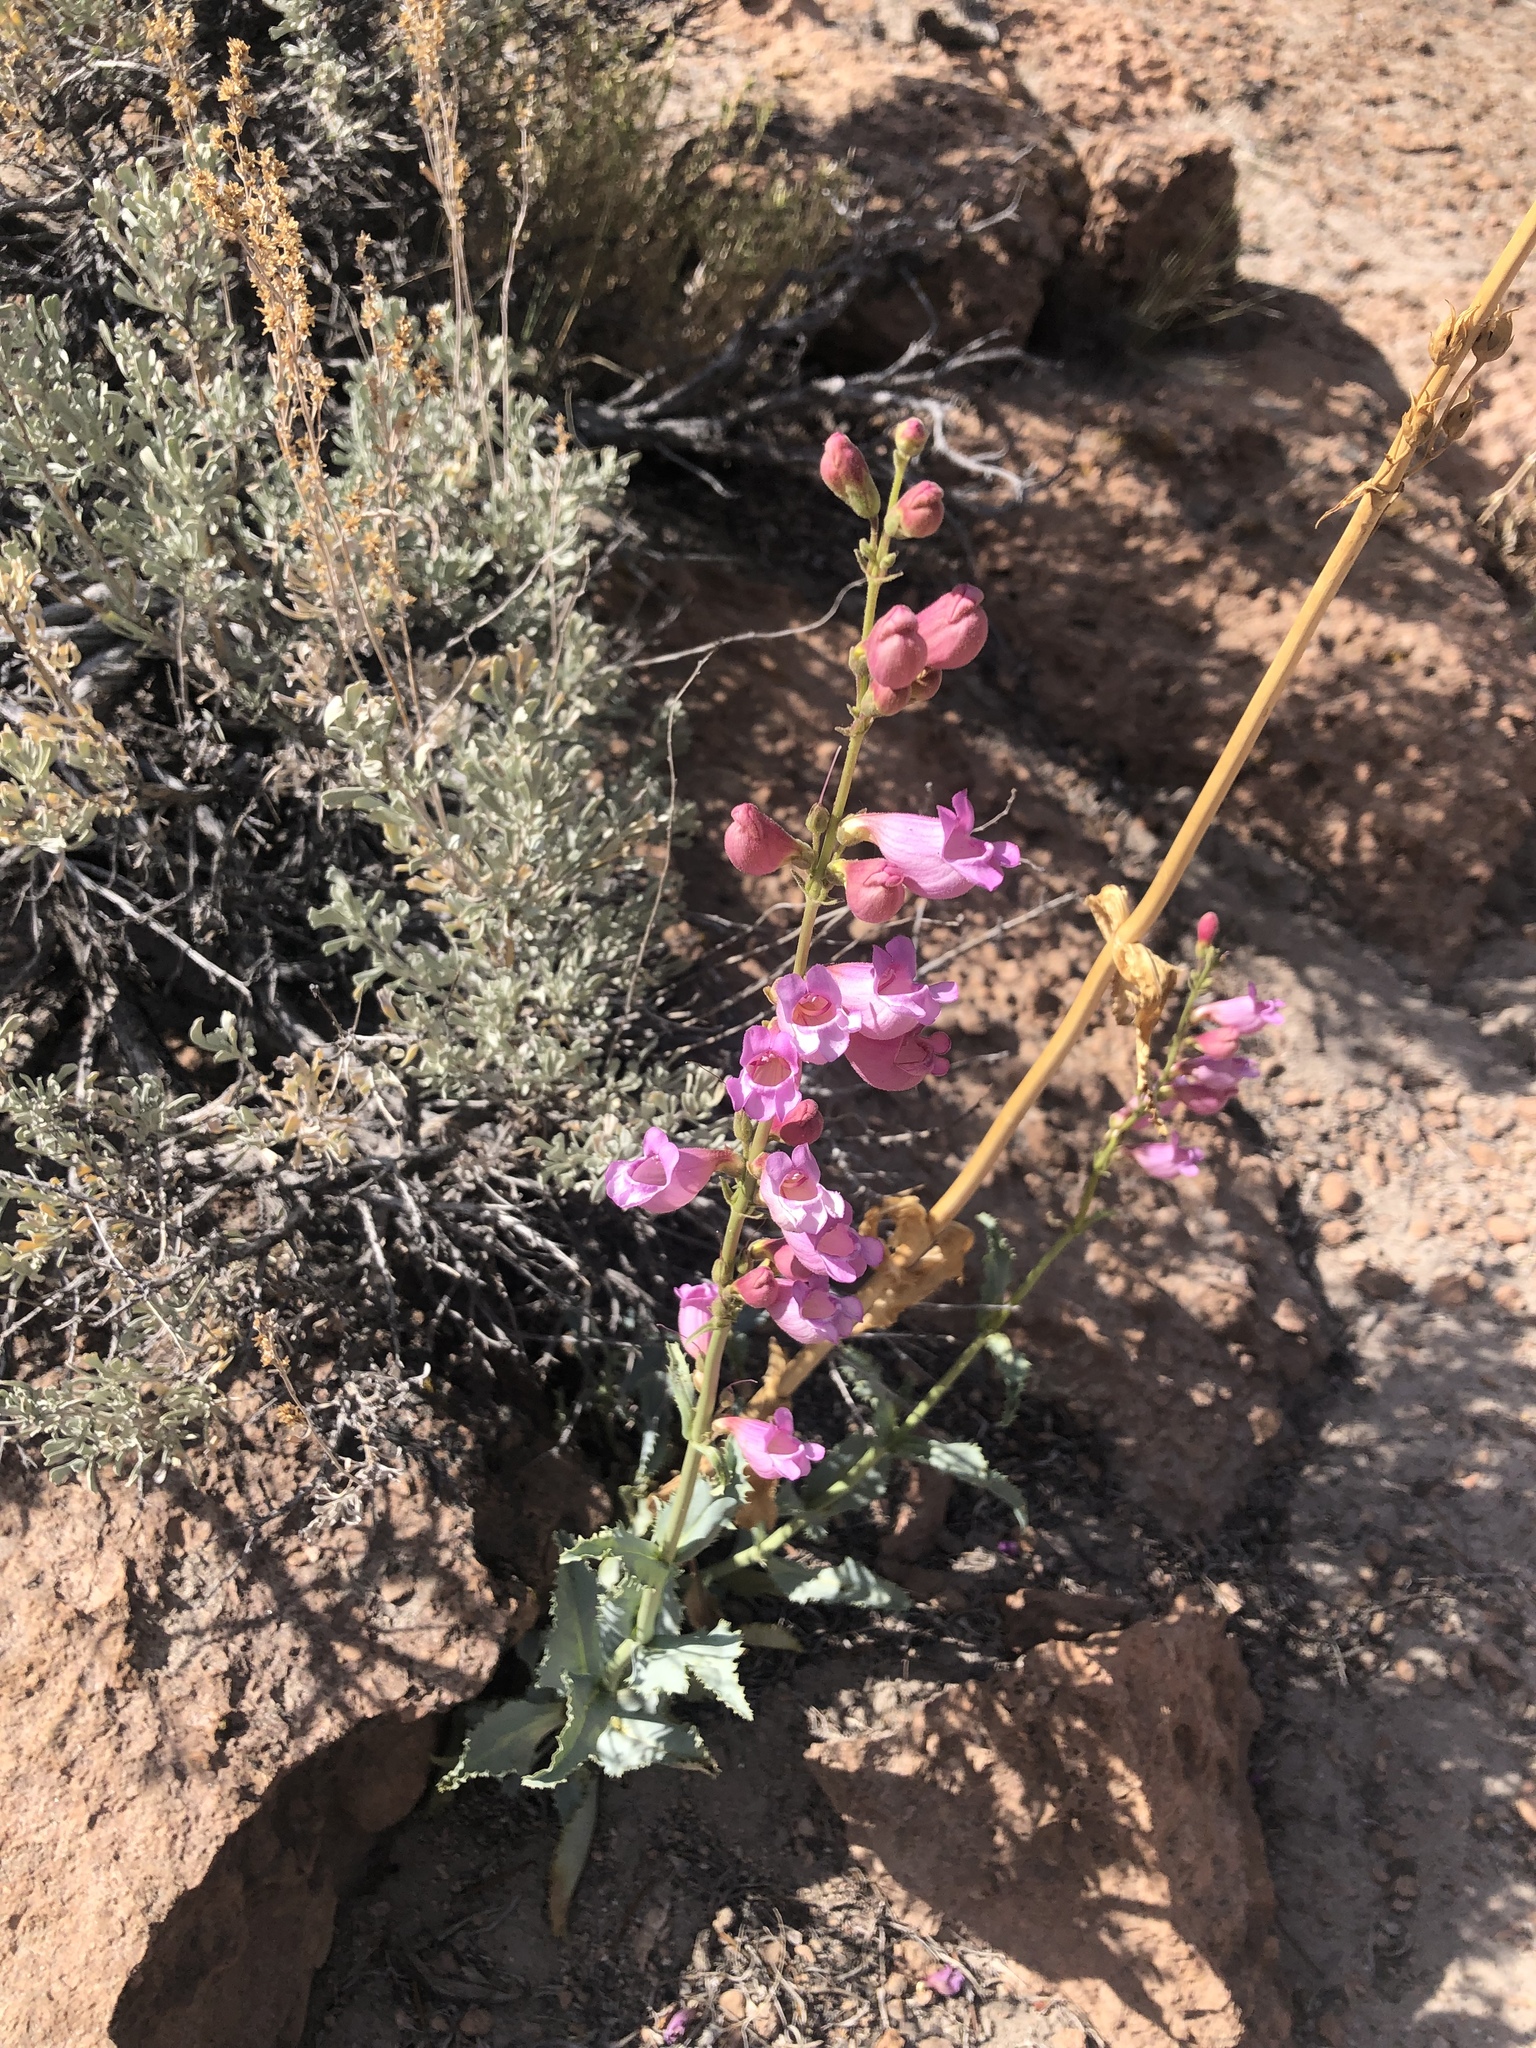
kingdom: Plantae
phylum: Tracheophyta
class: Magnoliopsida
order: Lamiales
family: Plantaginaceae
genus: Penstemon
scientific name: Penstemon floridus
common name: Panamint penstemon
